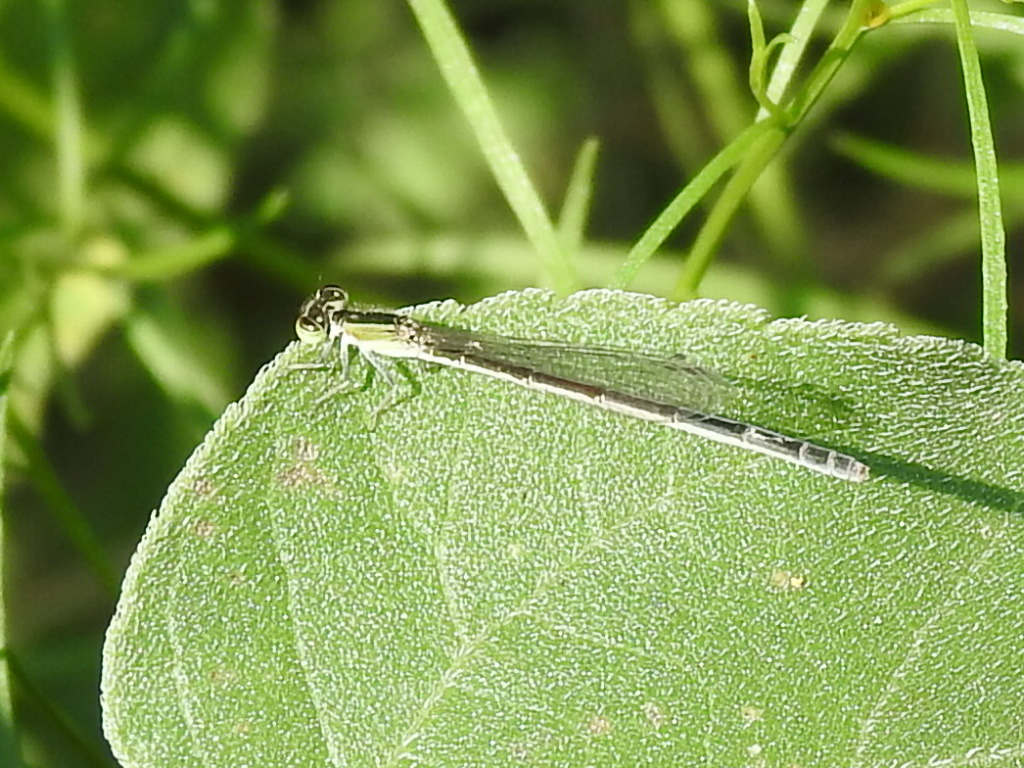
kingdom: Animalia
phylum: Arthropoda
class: Insecta
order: Odonata
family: Coenagrionidae
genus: Ischnura
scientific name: Ischnura hastata
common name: Citrine forktail
